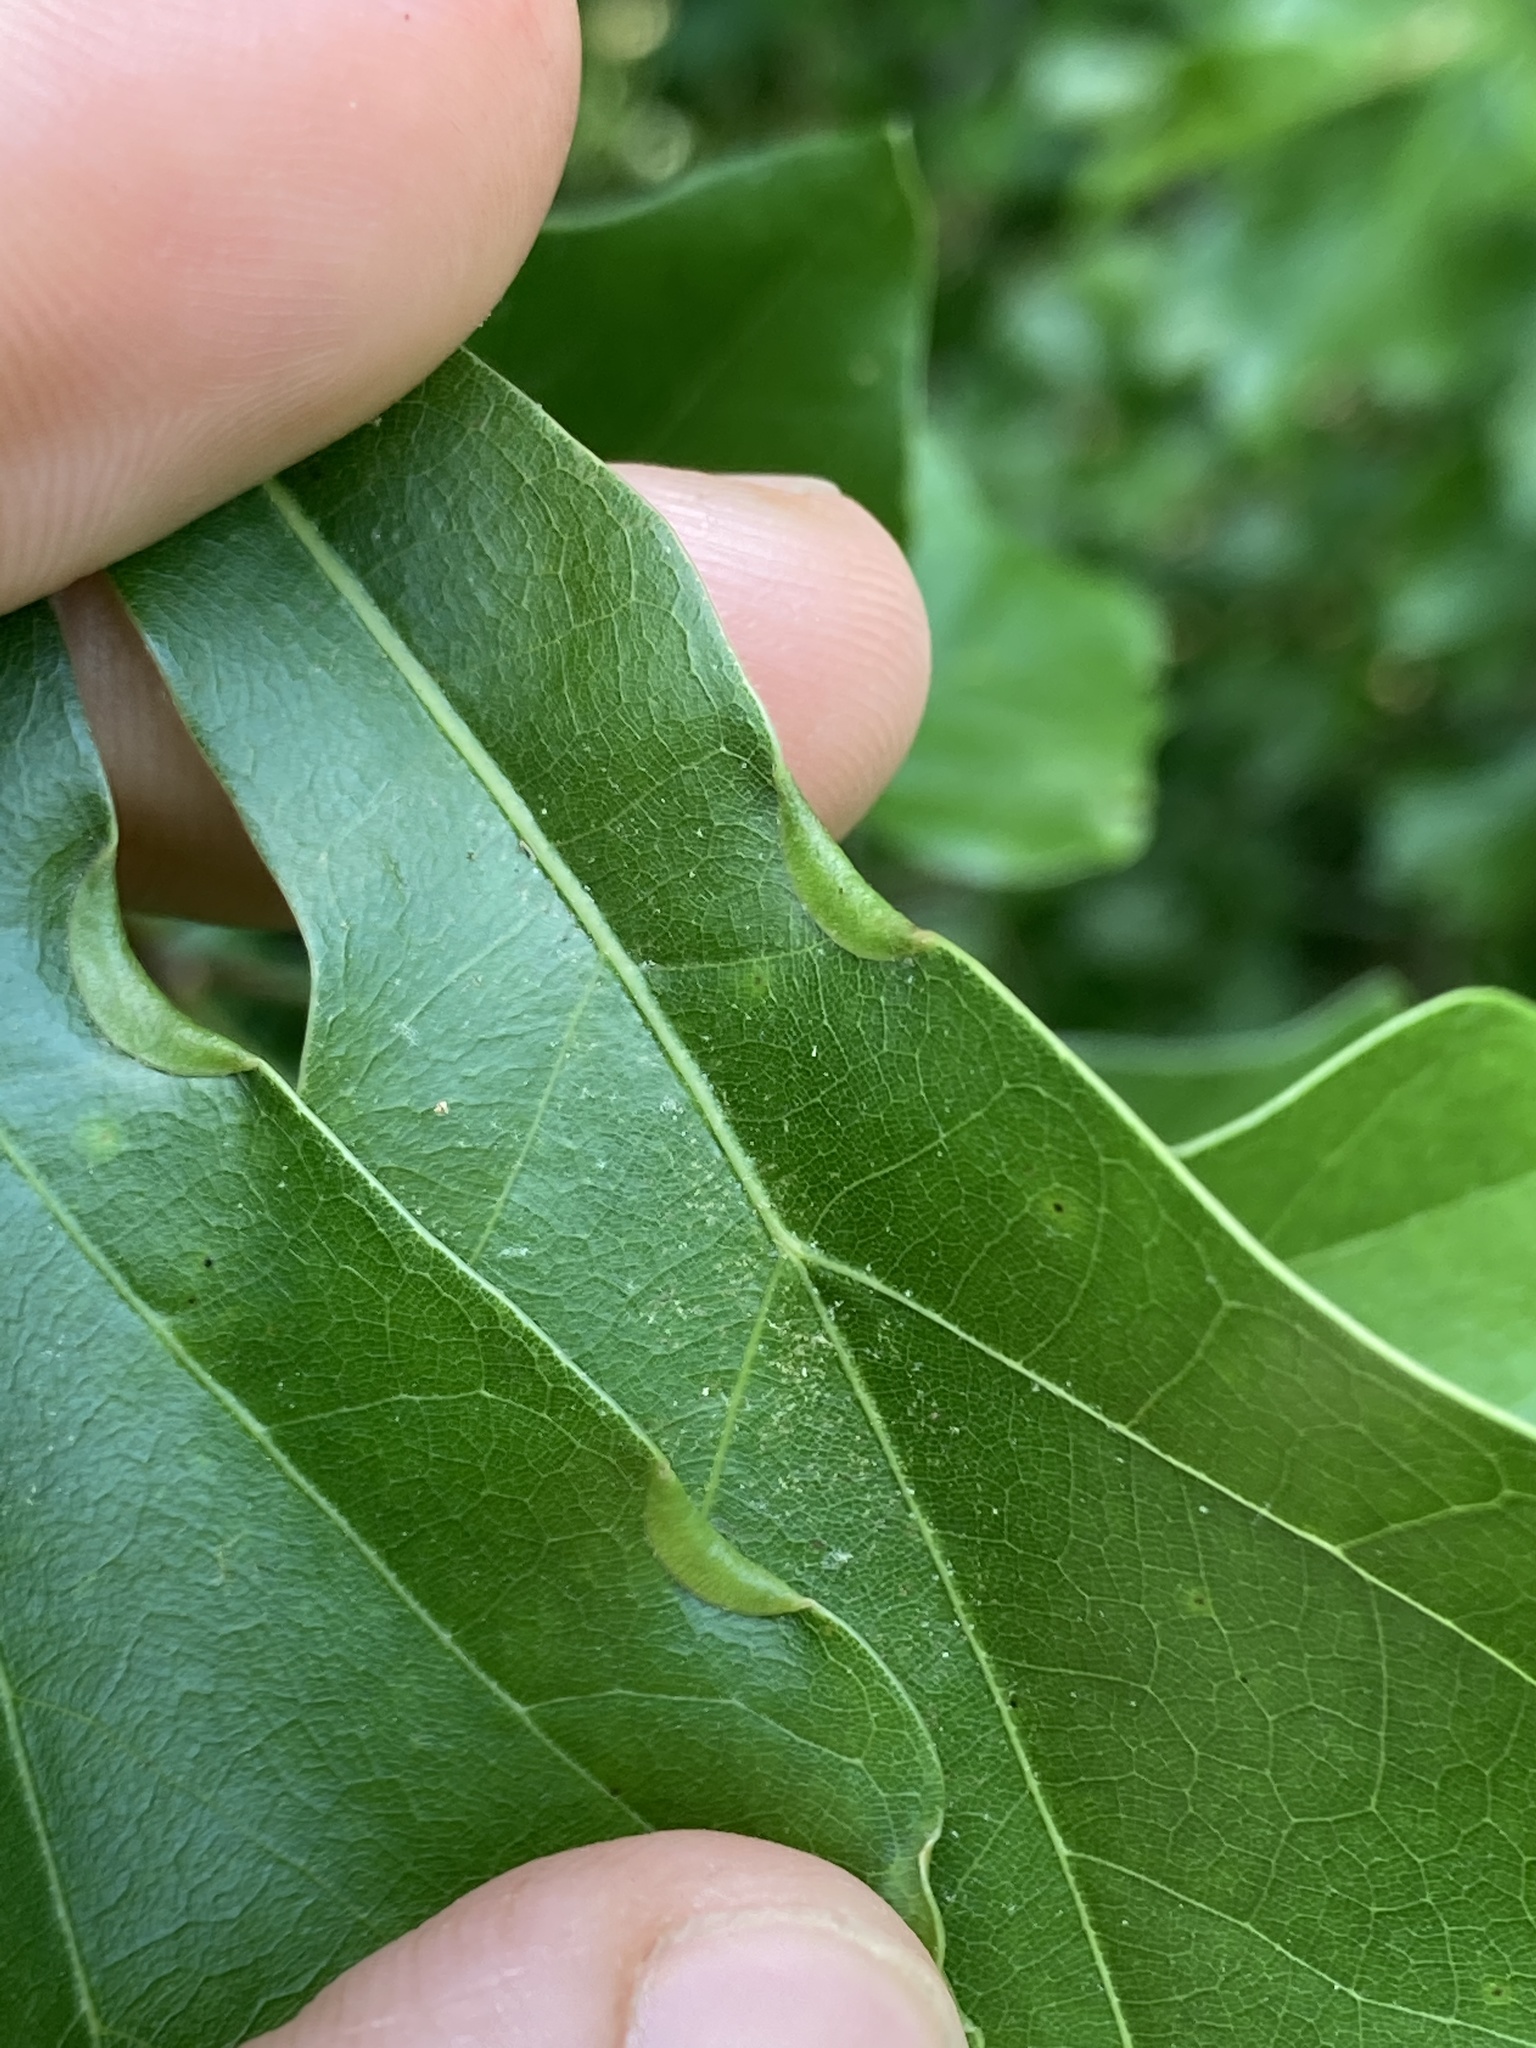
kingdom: Animalia
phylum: Arthropoda
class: Insecta
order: Diptera
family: Cecidomyiidae
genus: Macrodiplosis
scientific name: Macrodiplosis erubescens
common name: Marginal leaf fold gall midge
